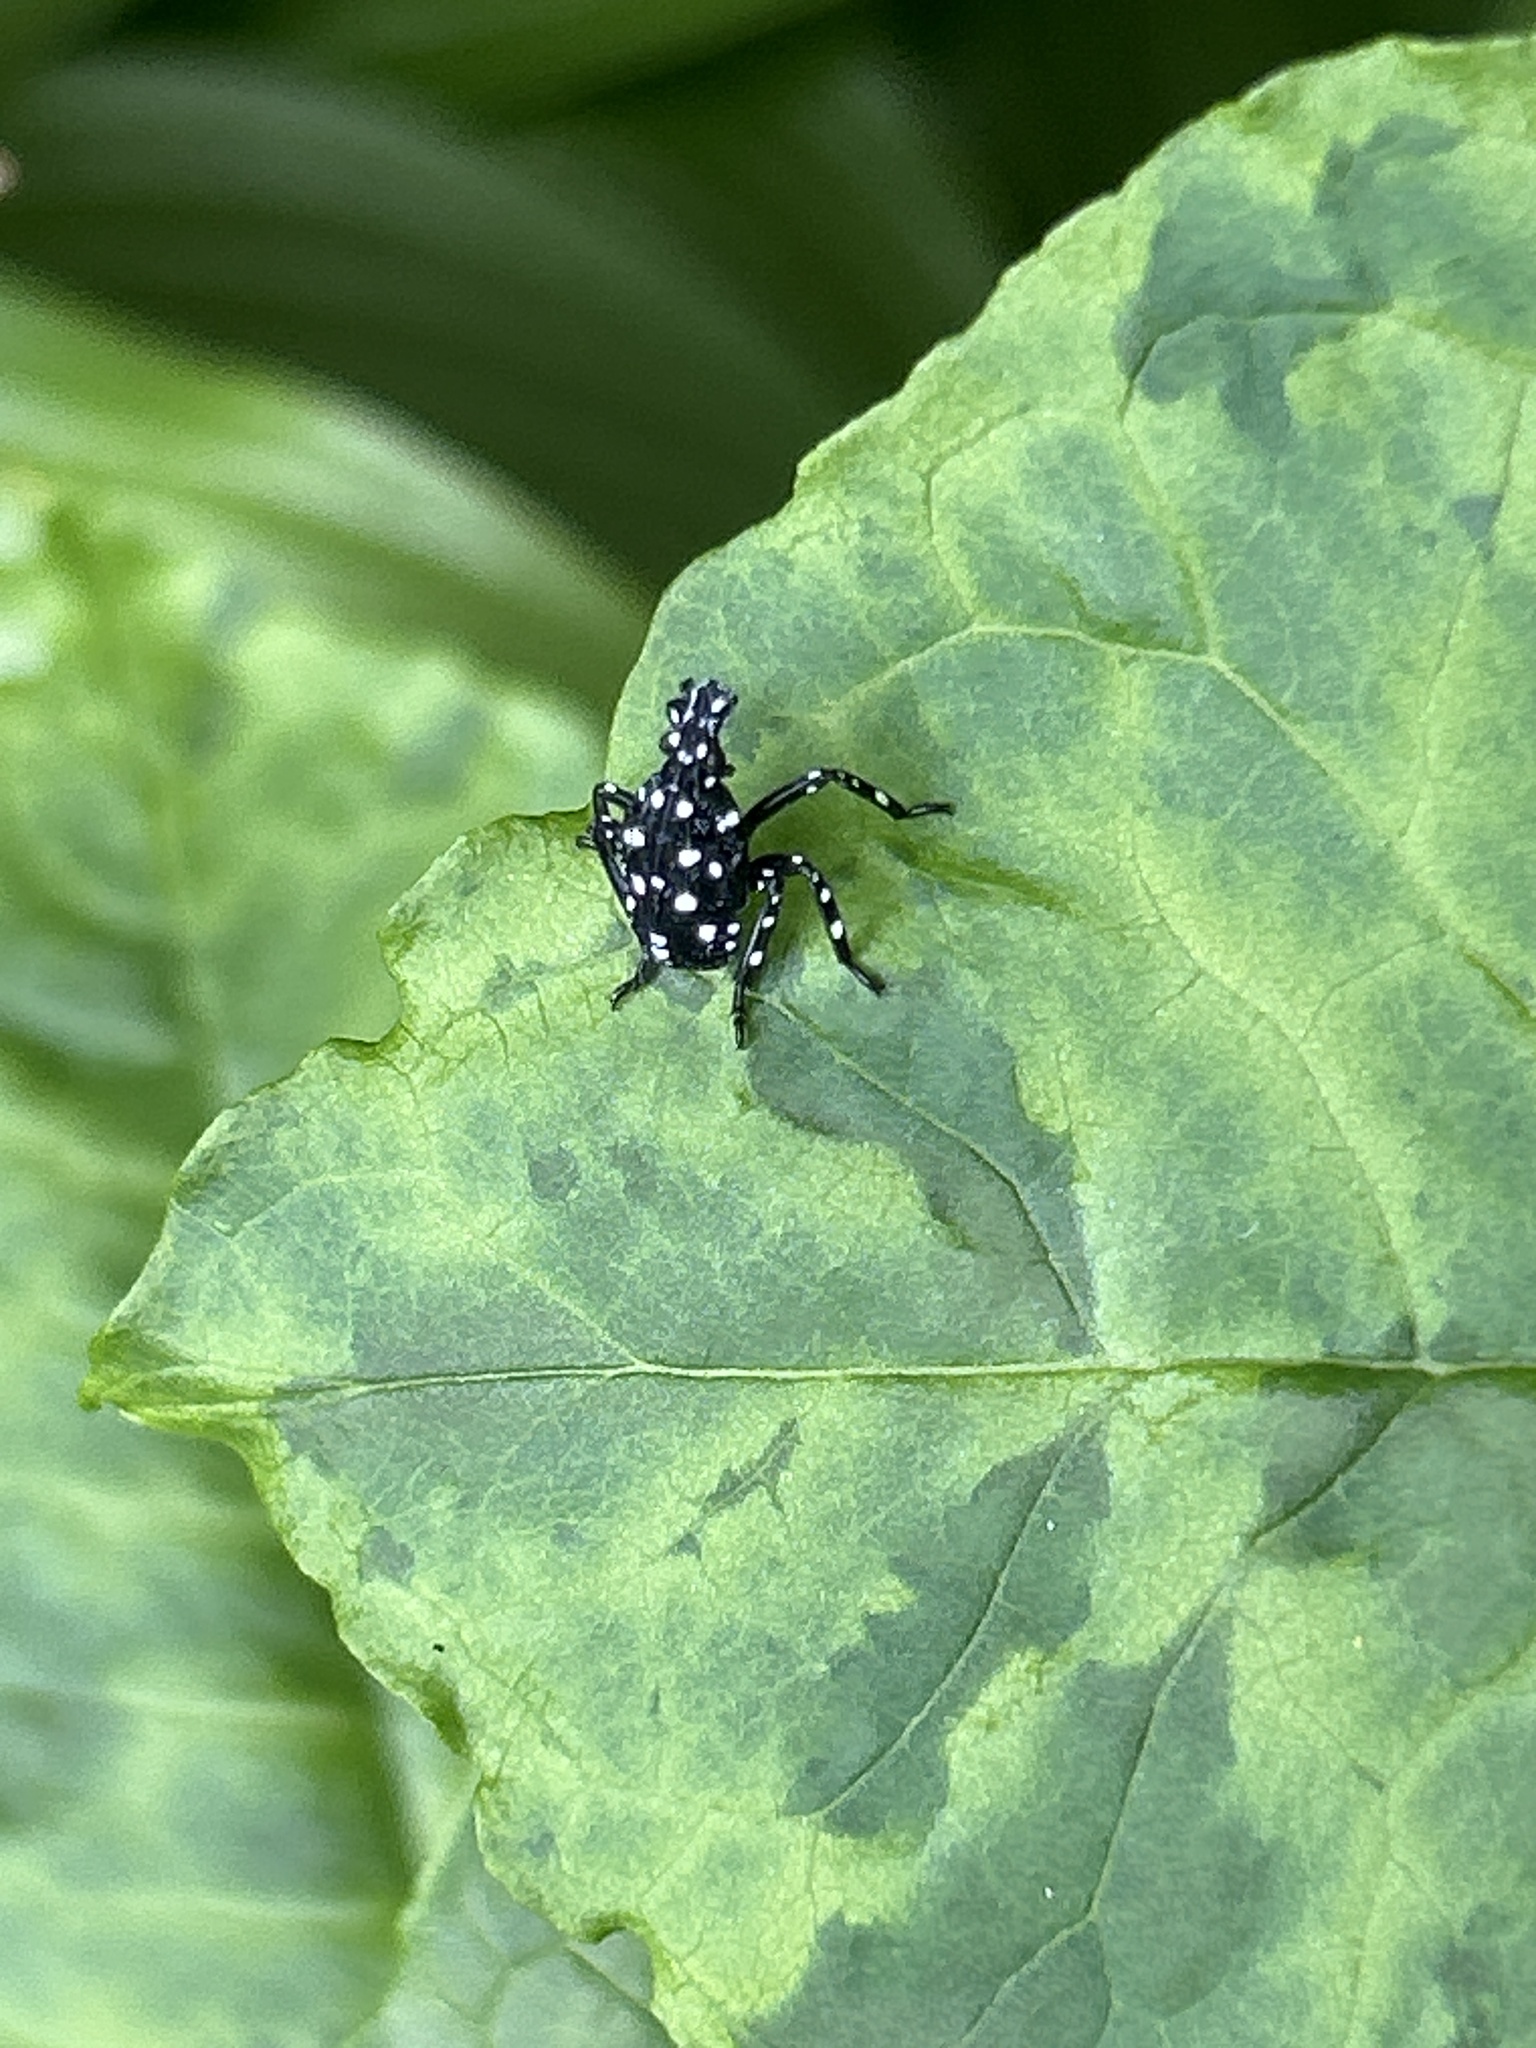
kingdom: Animalia
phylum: Arthropoda
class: Insecta
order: Hemiptera
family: Fulgoridae
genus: Lycorma
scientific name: Lycorma delicatula
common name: Spotted lanternfly
